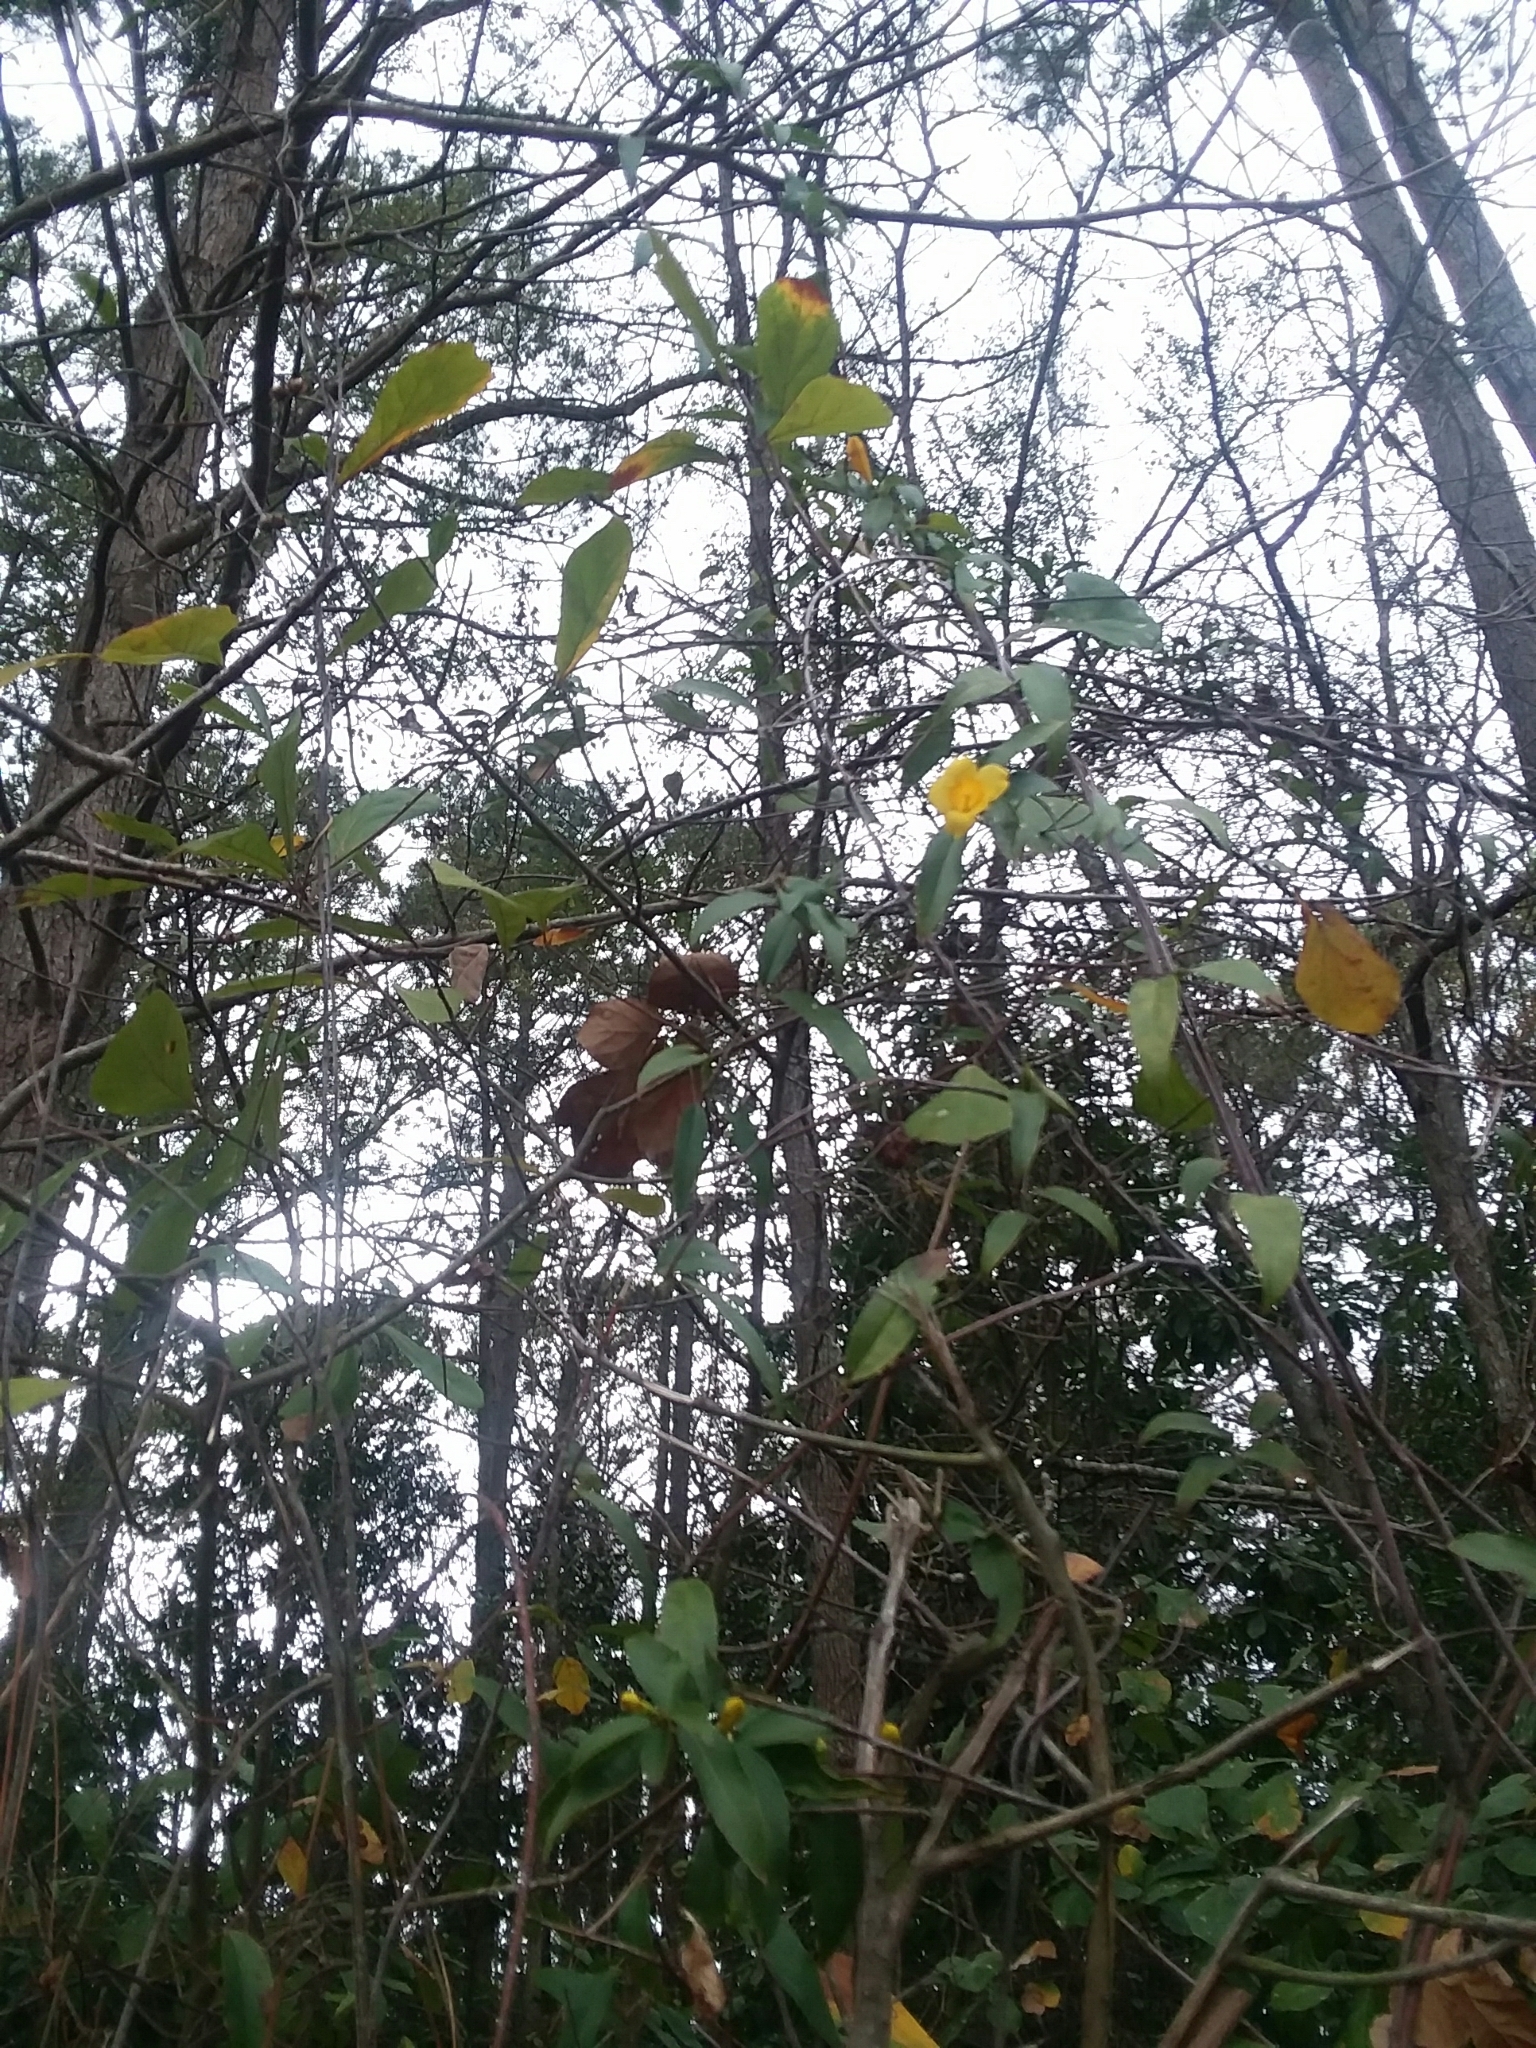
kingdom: Plantae
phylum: Tracheophyta
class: Magnoliopsida
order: Gentianales
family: Gelsemiaceae
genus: Gelsemium
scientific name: Gelsemium sempervirens
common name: Carolina-jasmine
